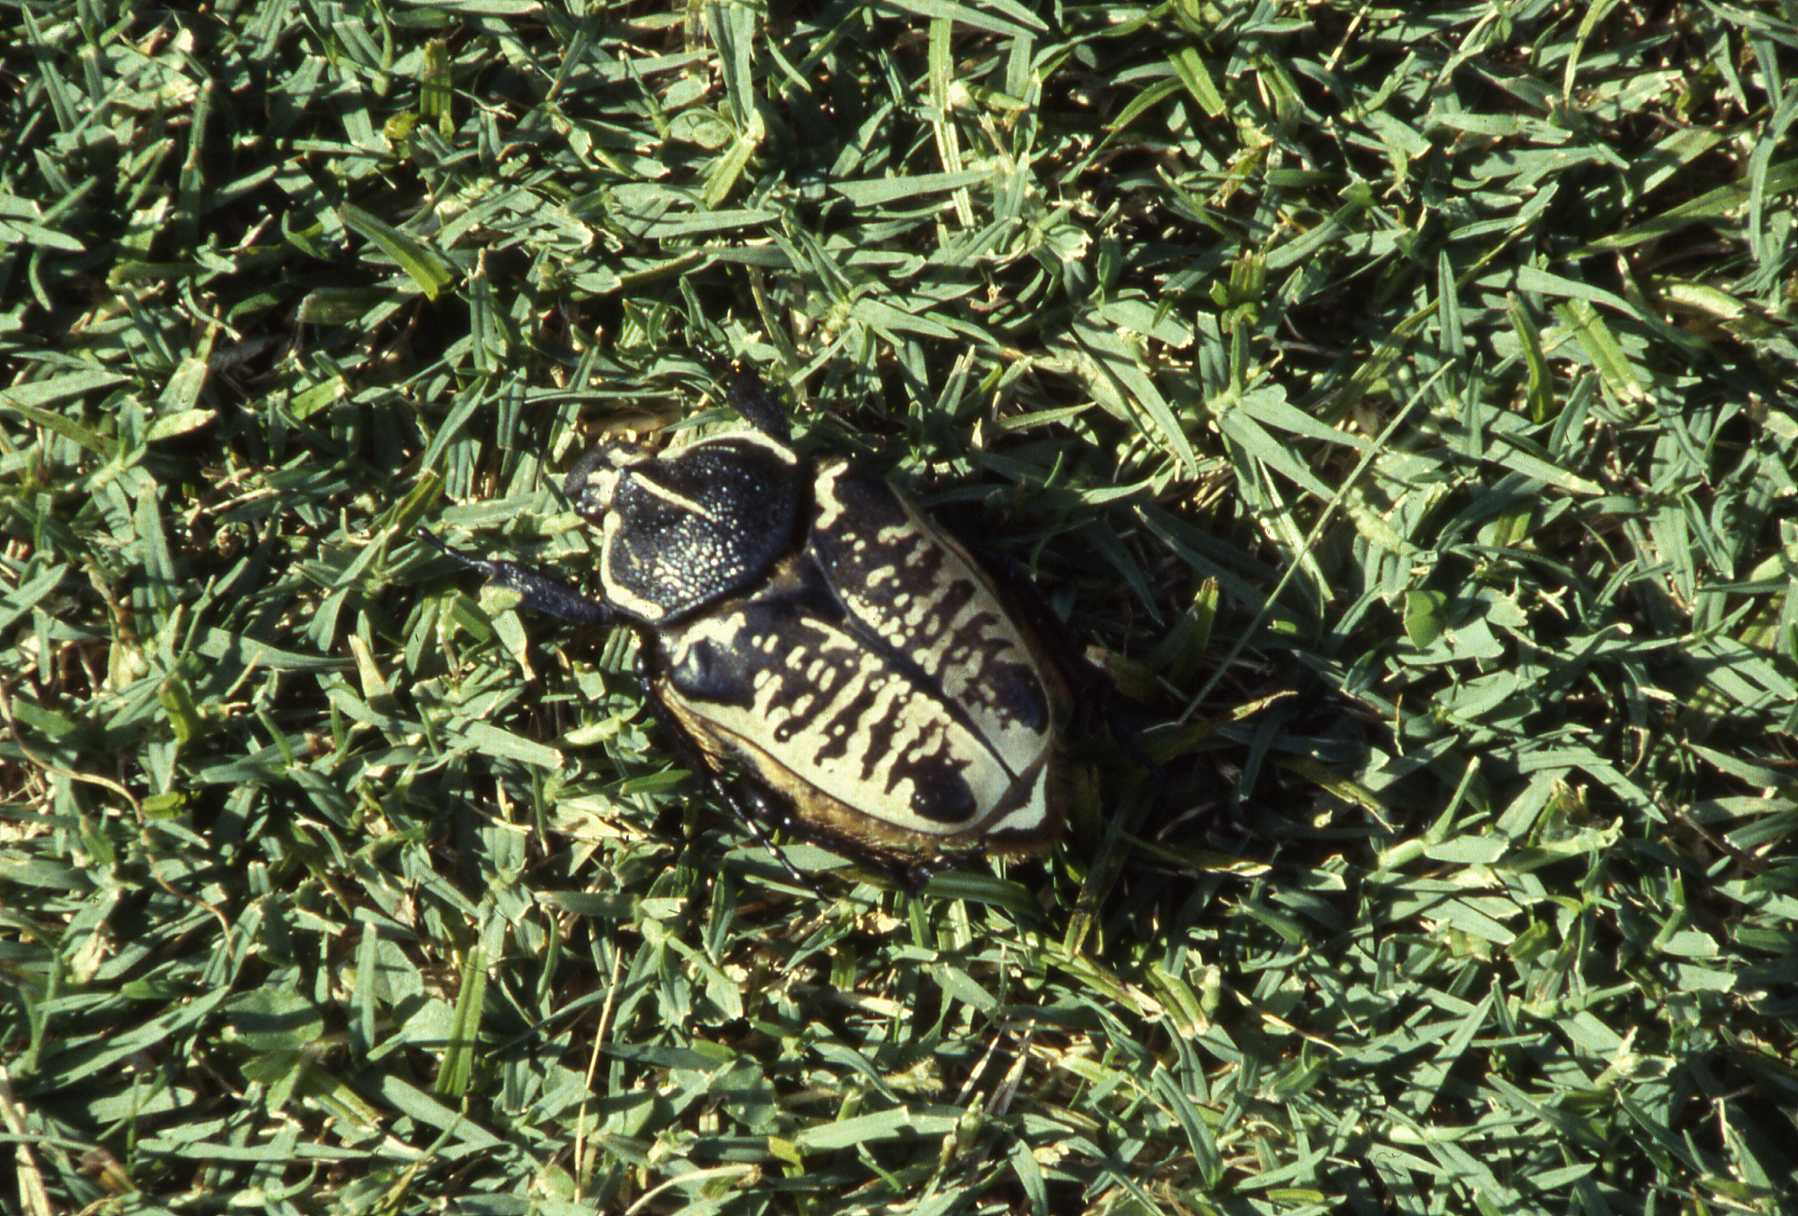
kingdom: Animalia
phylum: Arthropoda
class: Insecta
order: Coleoptera
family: Scarabaeidae
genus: Goliathus
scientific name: Goliathus albosignatus
